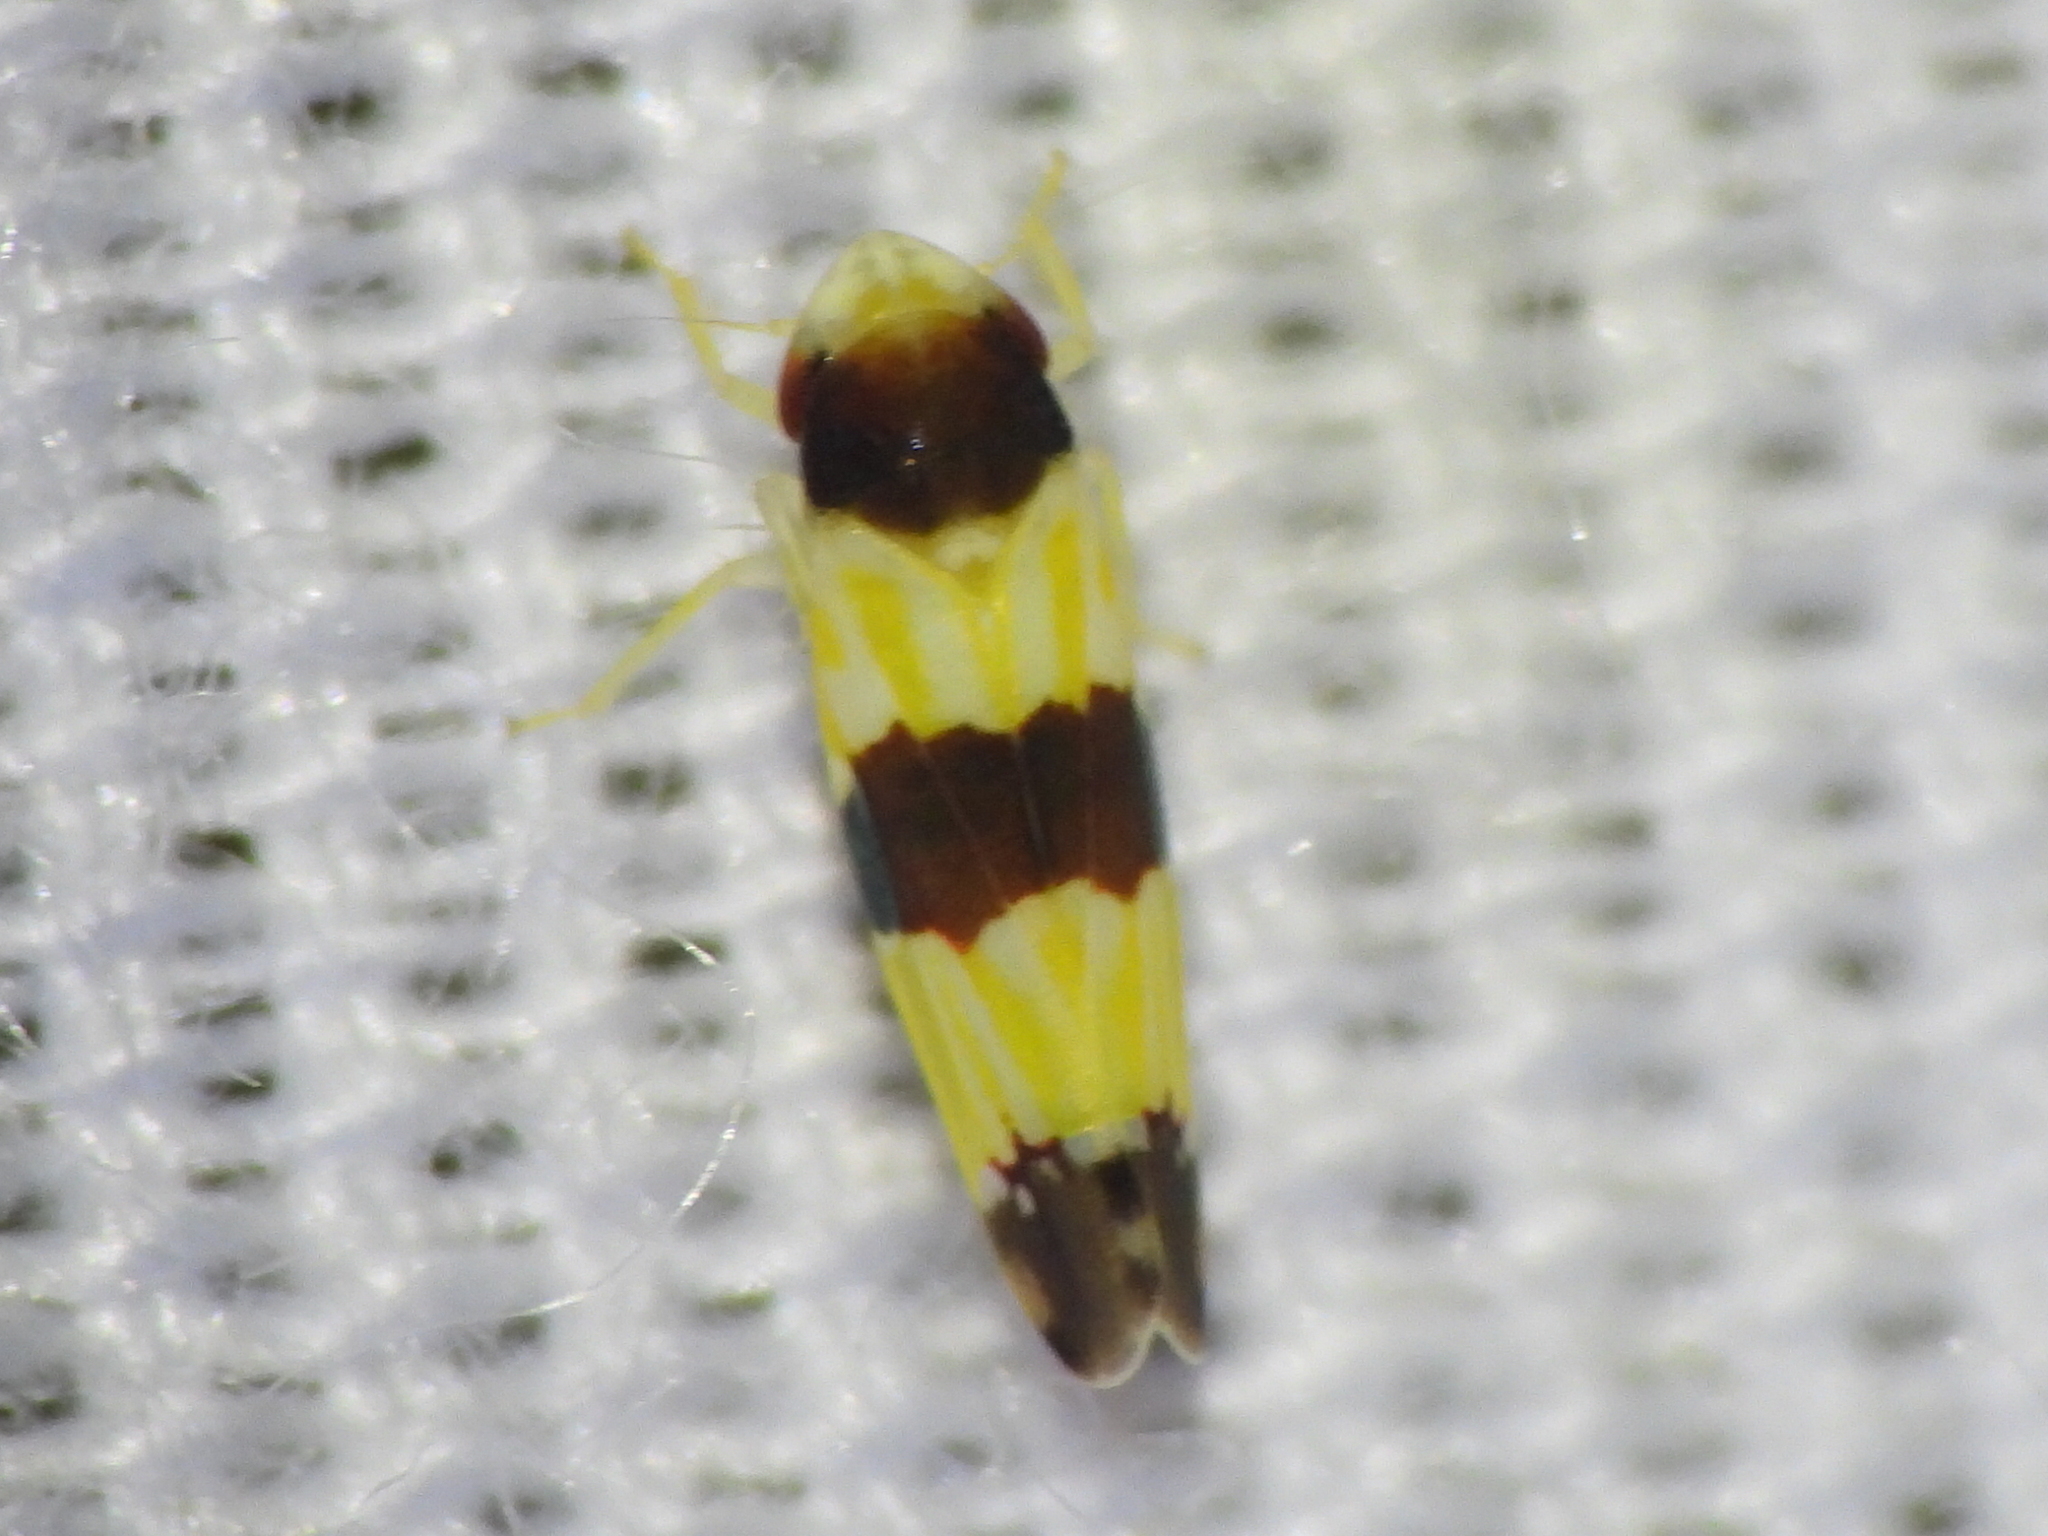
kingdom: Animalia
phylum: Arthropoda
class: Insecta
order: Hemiptera
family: Cicadellidae
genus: Erythroneura
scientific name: Erythroneura tricincta
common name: The threebanded grape leafhopper
